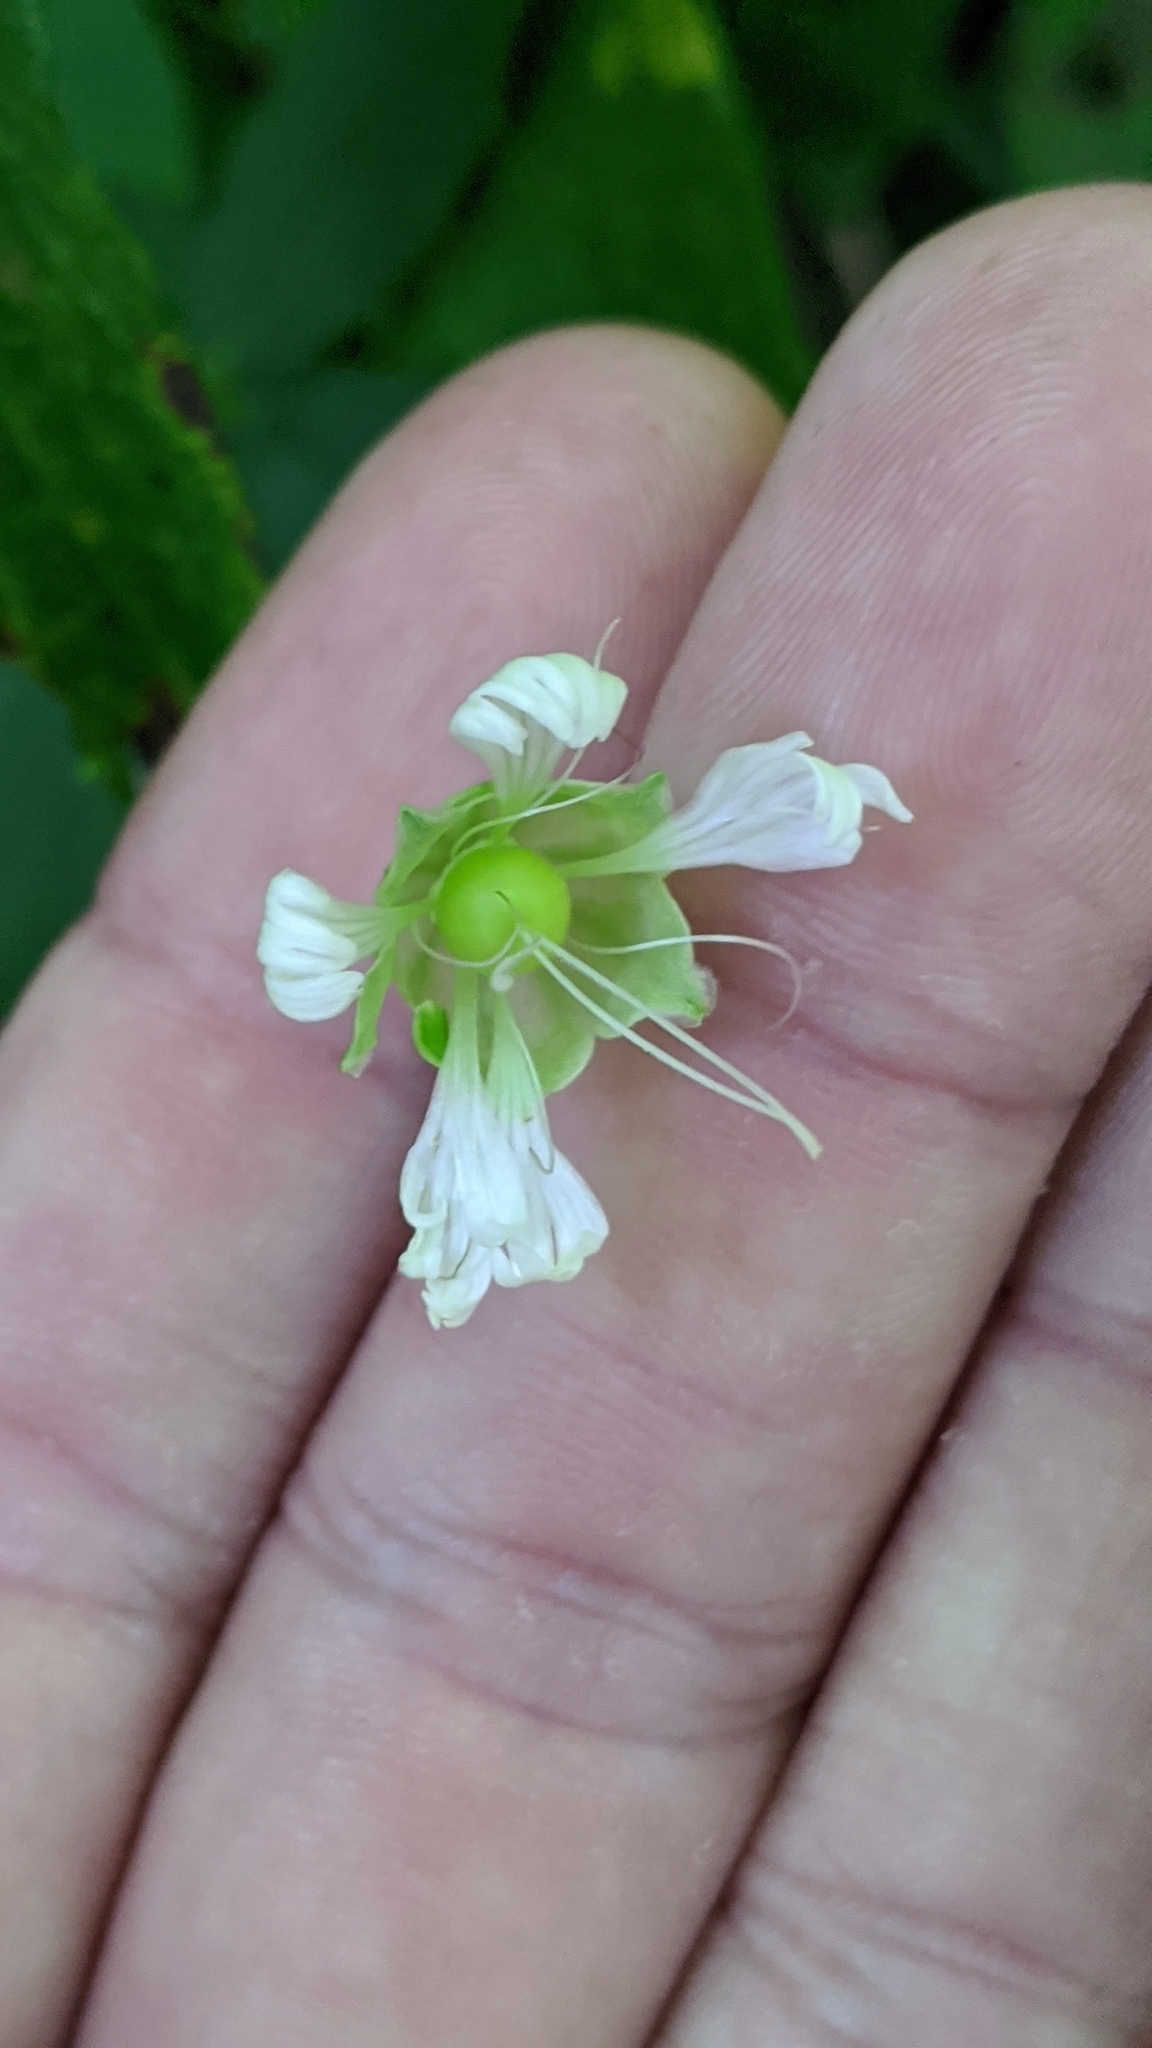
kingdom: Plantae
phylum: Tracheophyta
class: Magnoliopsida
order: Caryophyllales
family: Caryophyllaceae
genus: Silene
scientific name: Silene stellata
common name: Starry campion
